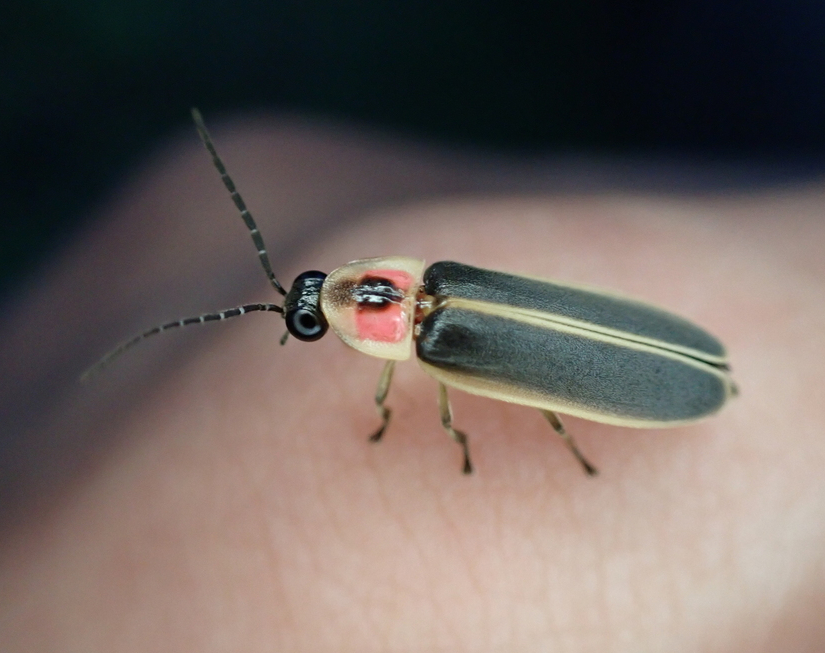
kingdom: Animalia
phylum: Arthropoda
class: Insecta
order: Coleoptera
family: Lampyridae
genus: Photinus
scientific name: Photinus pyralis
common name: Big dipper firefly
